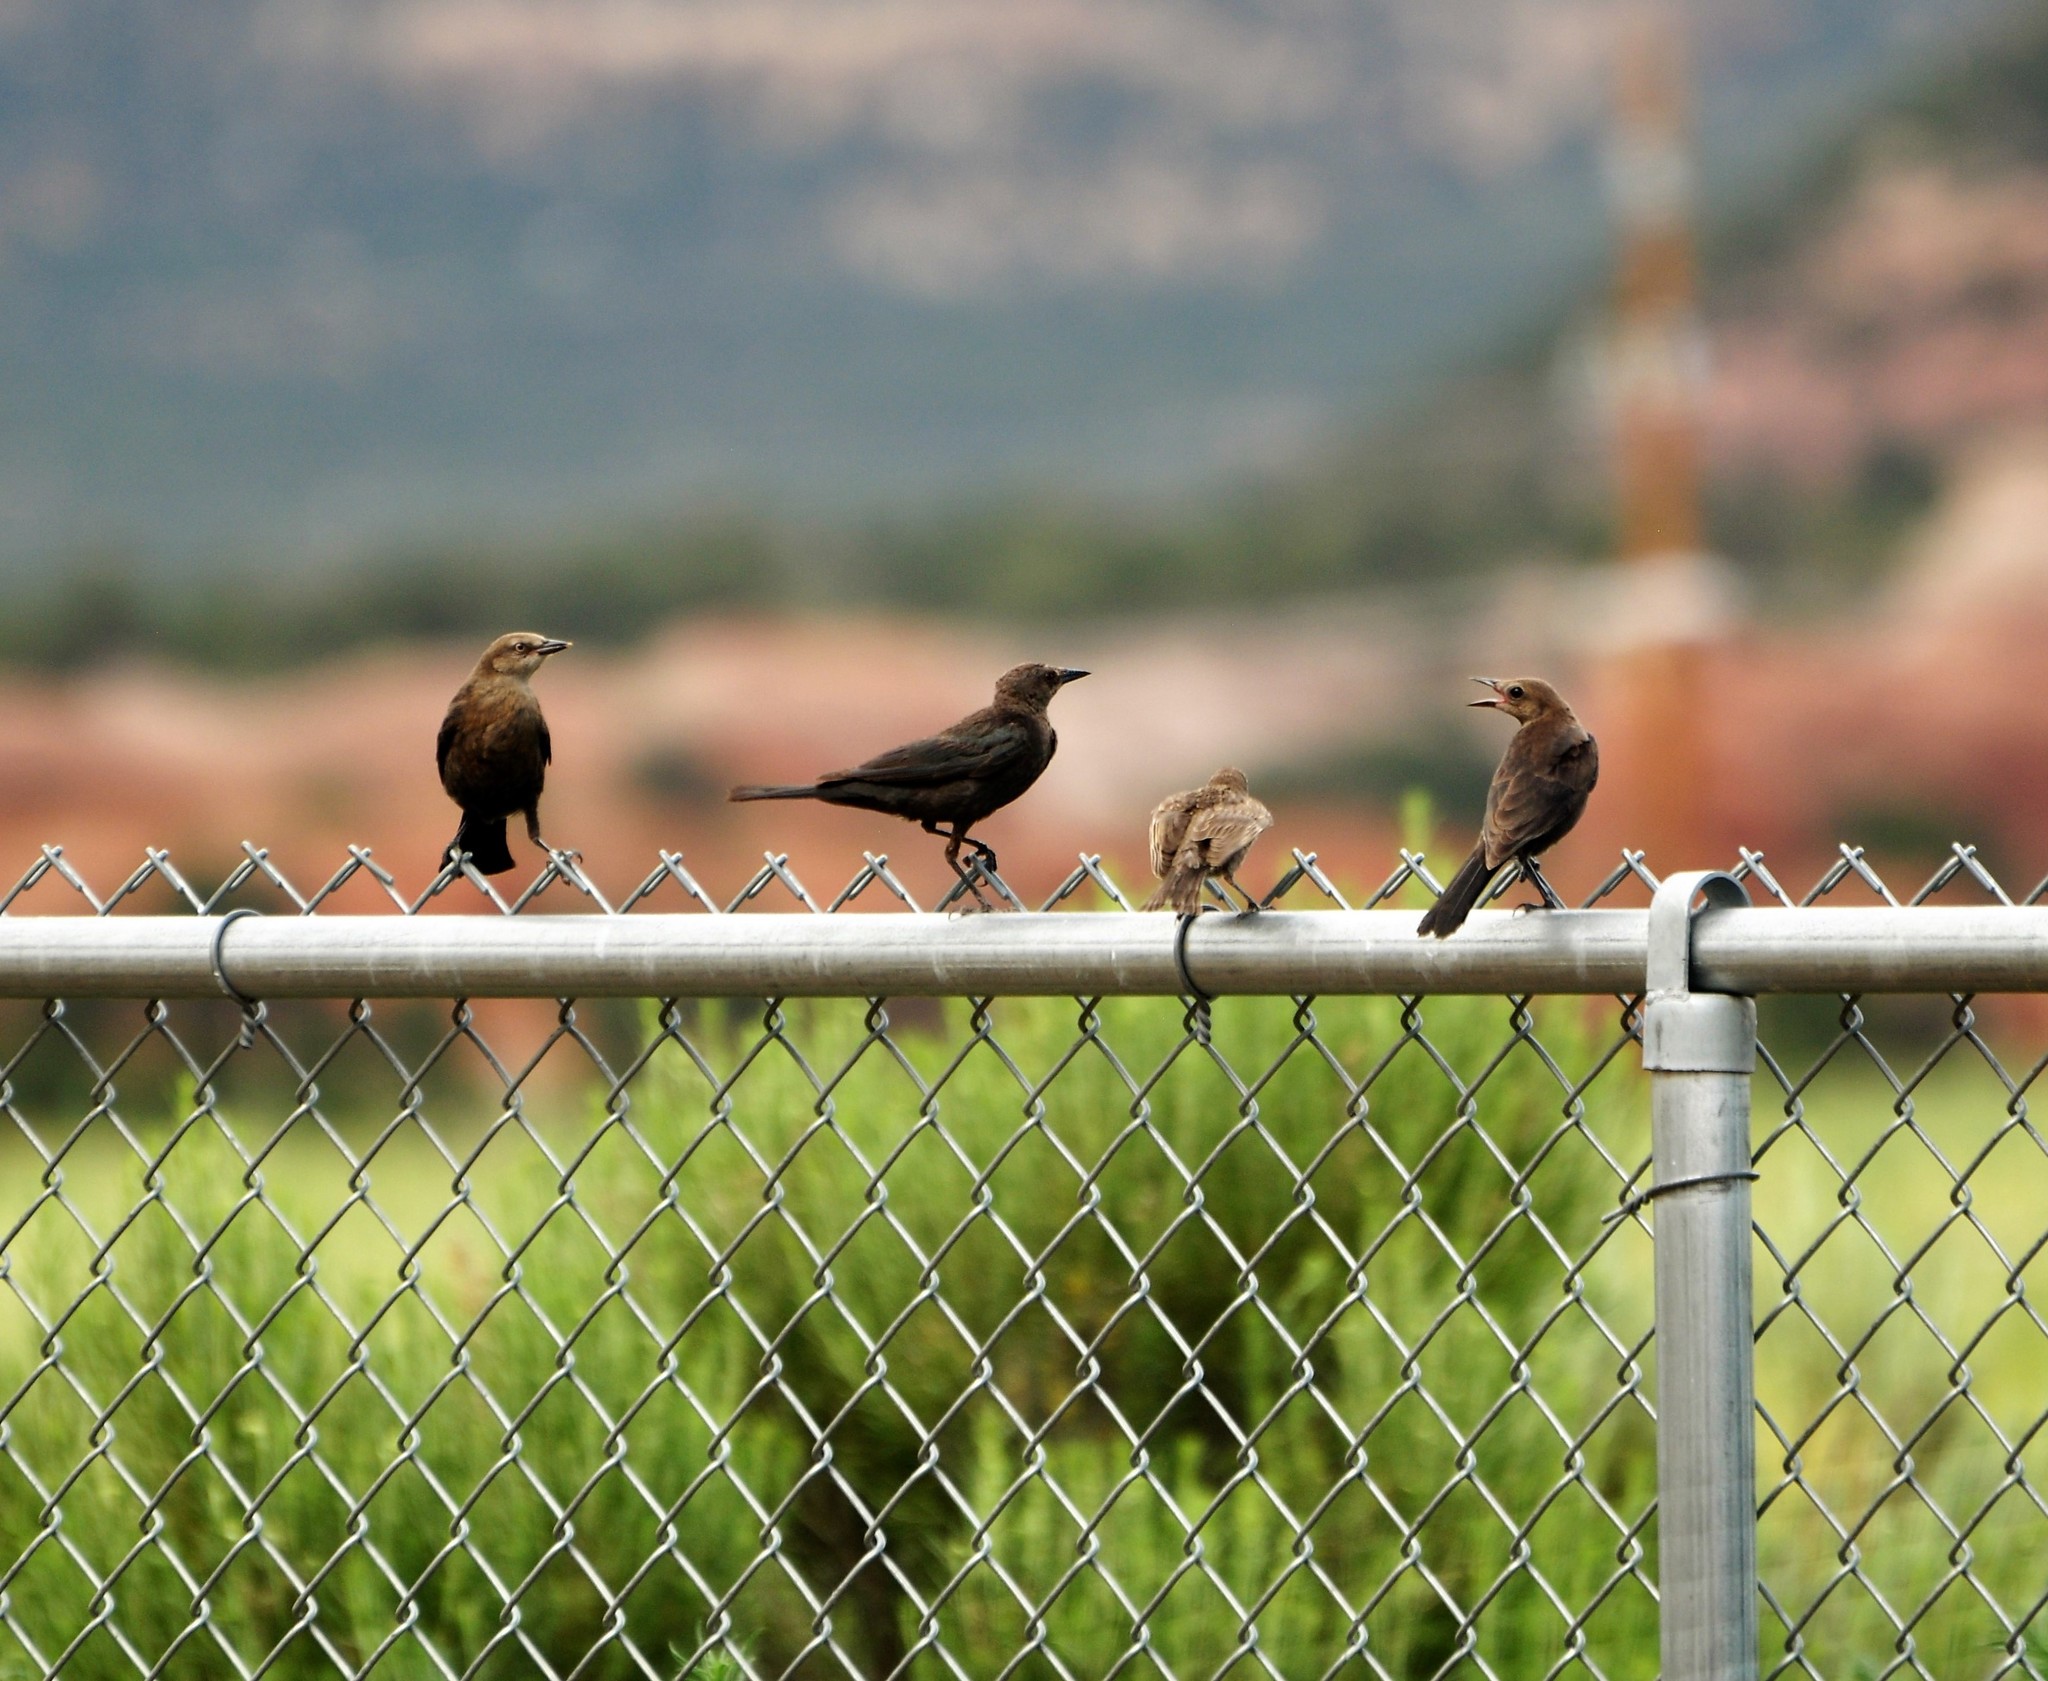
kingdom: Animalia
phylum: Chordata
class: Aves
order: Passeriformes
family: Icteridae
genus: Euphagus
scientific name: Euphagus cyanocephalus
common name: Brewer's blackbird
